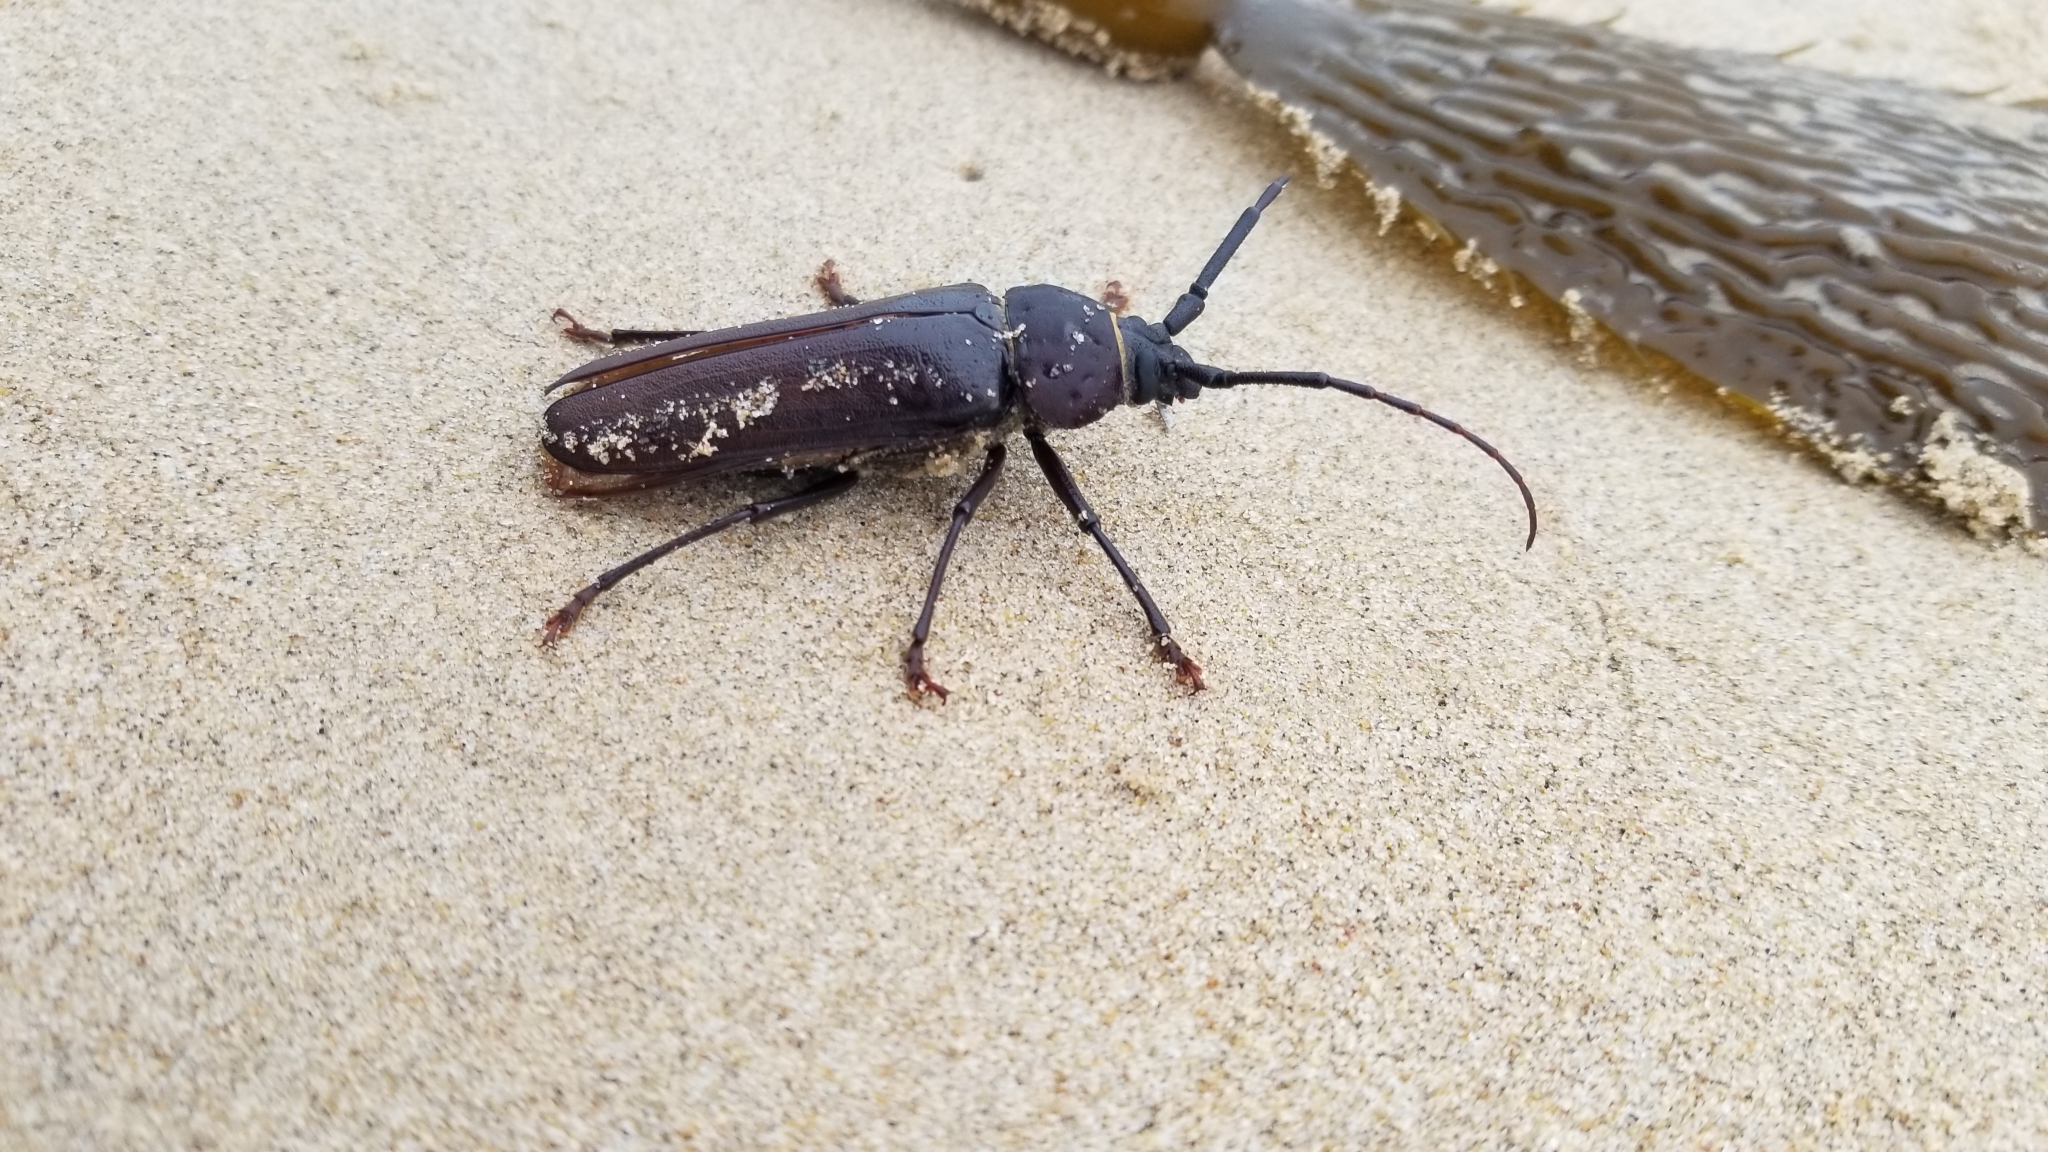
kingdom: Animalia
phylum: Arthropoda
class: Insecta
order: Coleoptera
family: Cerambycidae
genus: Trichocnemis
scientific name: Trichocnemis spiculatus
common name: Long-horned beetle
